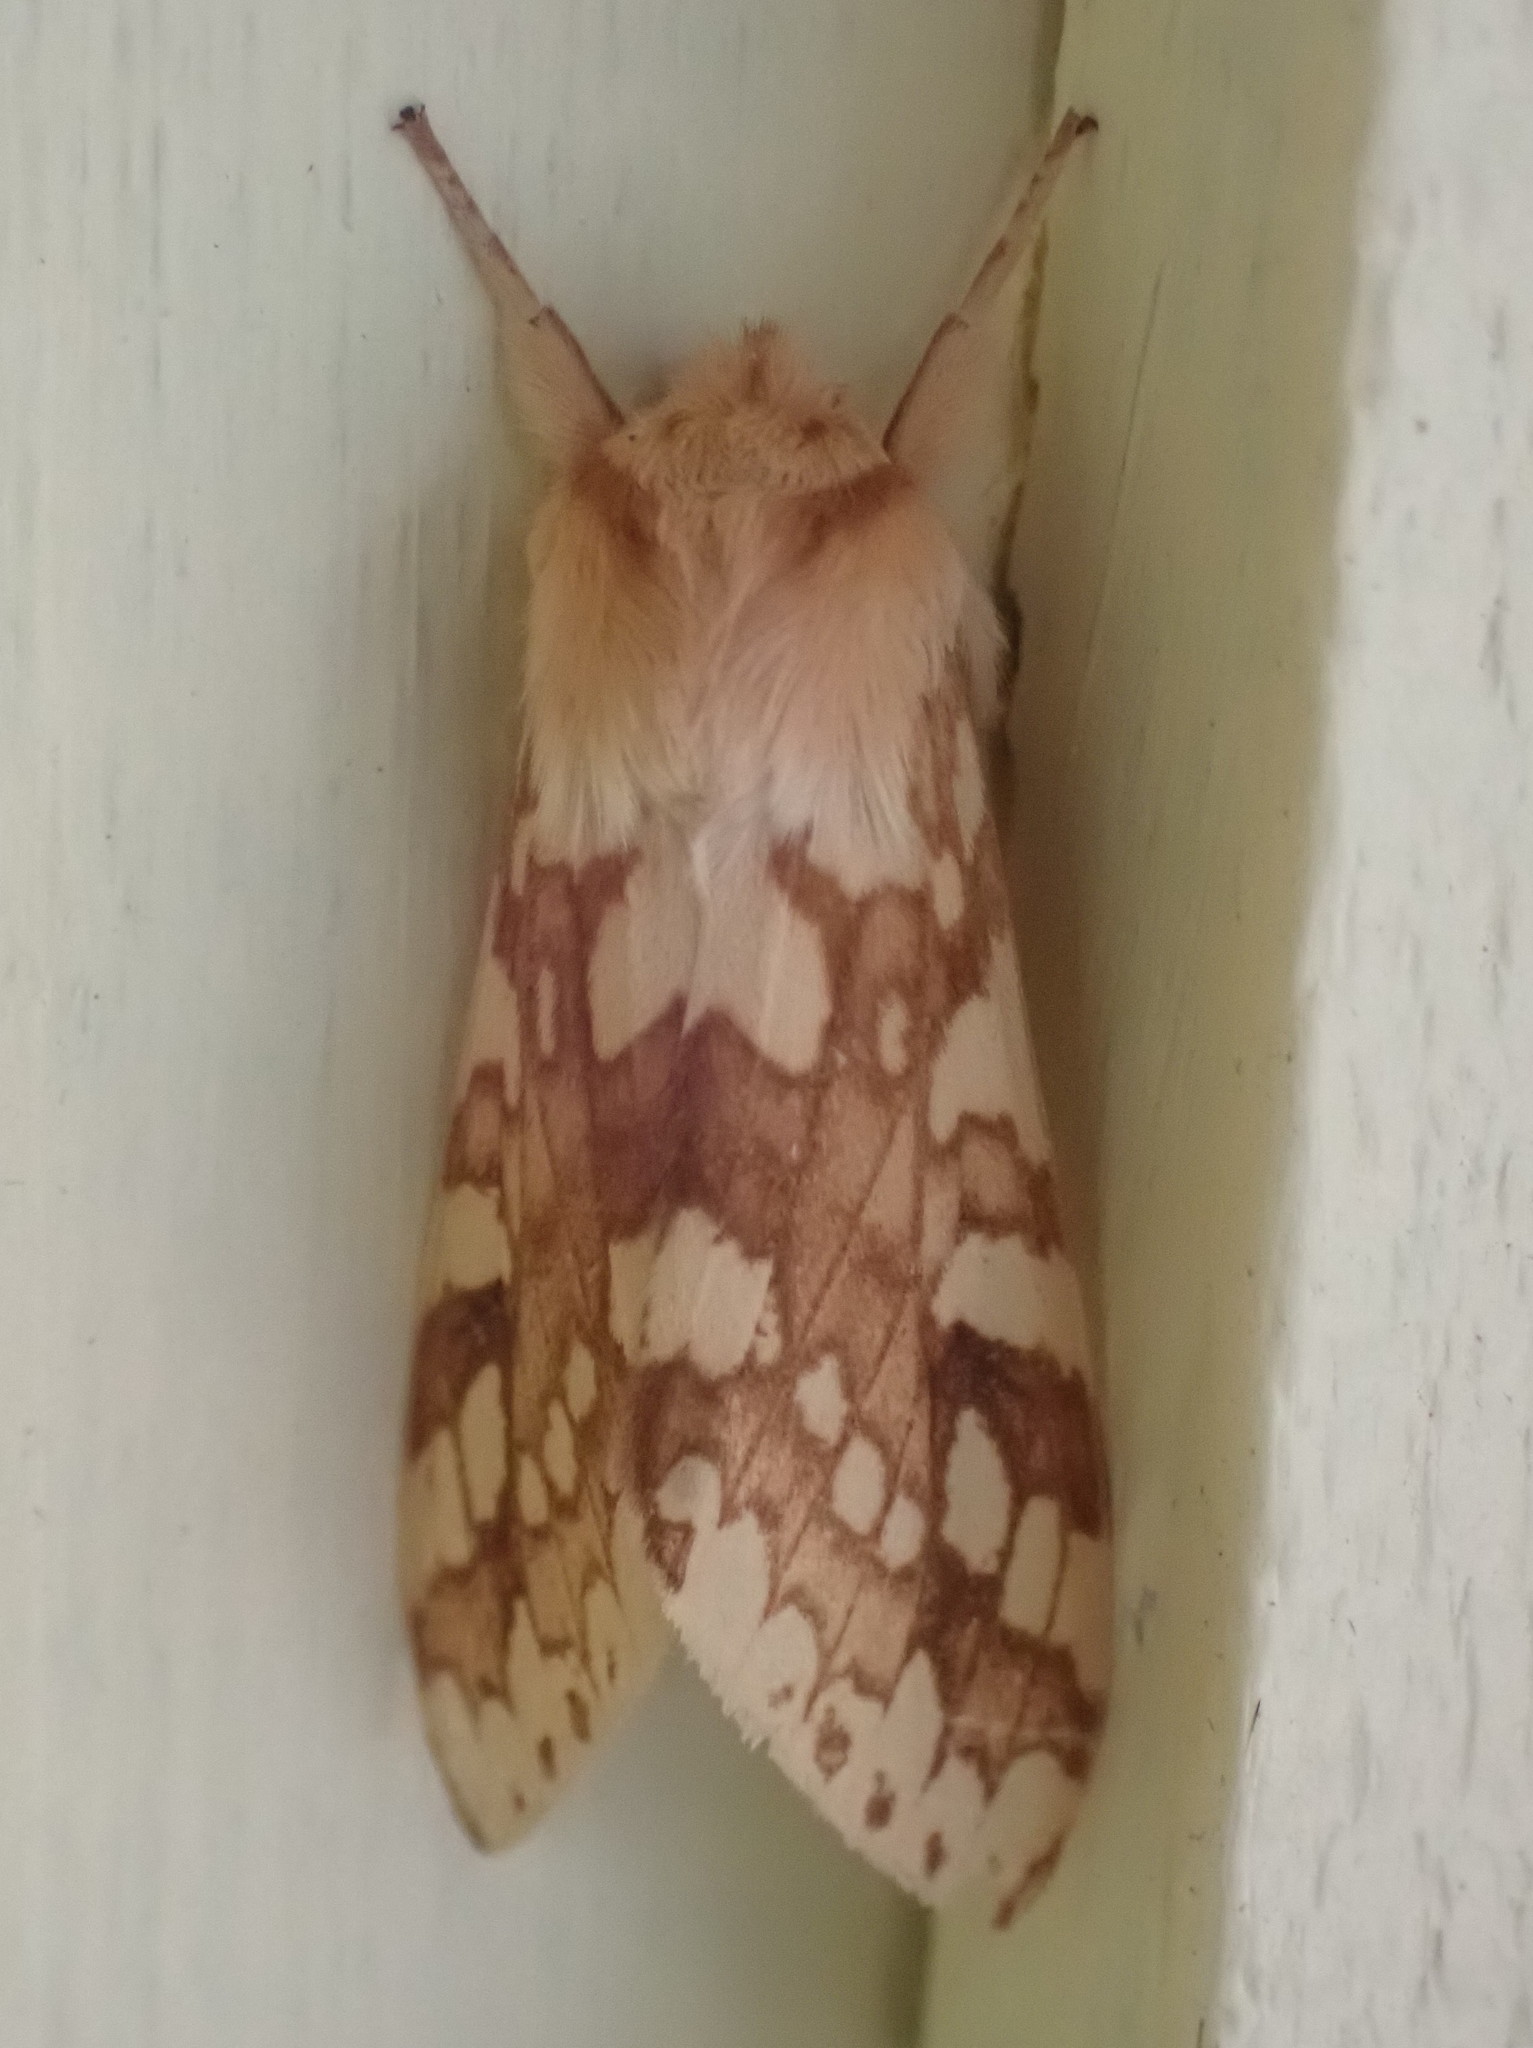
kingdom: Animalia
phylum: Arthropoda
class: Insecta
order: Lepidoptera
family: Erebidae
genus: Lophocampa
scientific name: Lophocampa maculata
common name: Spotted tussock moth
